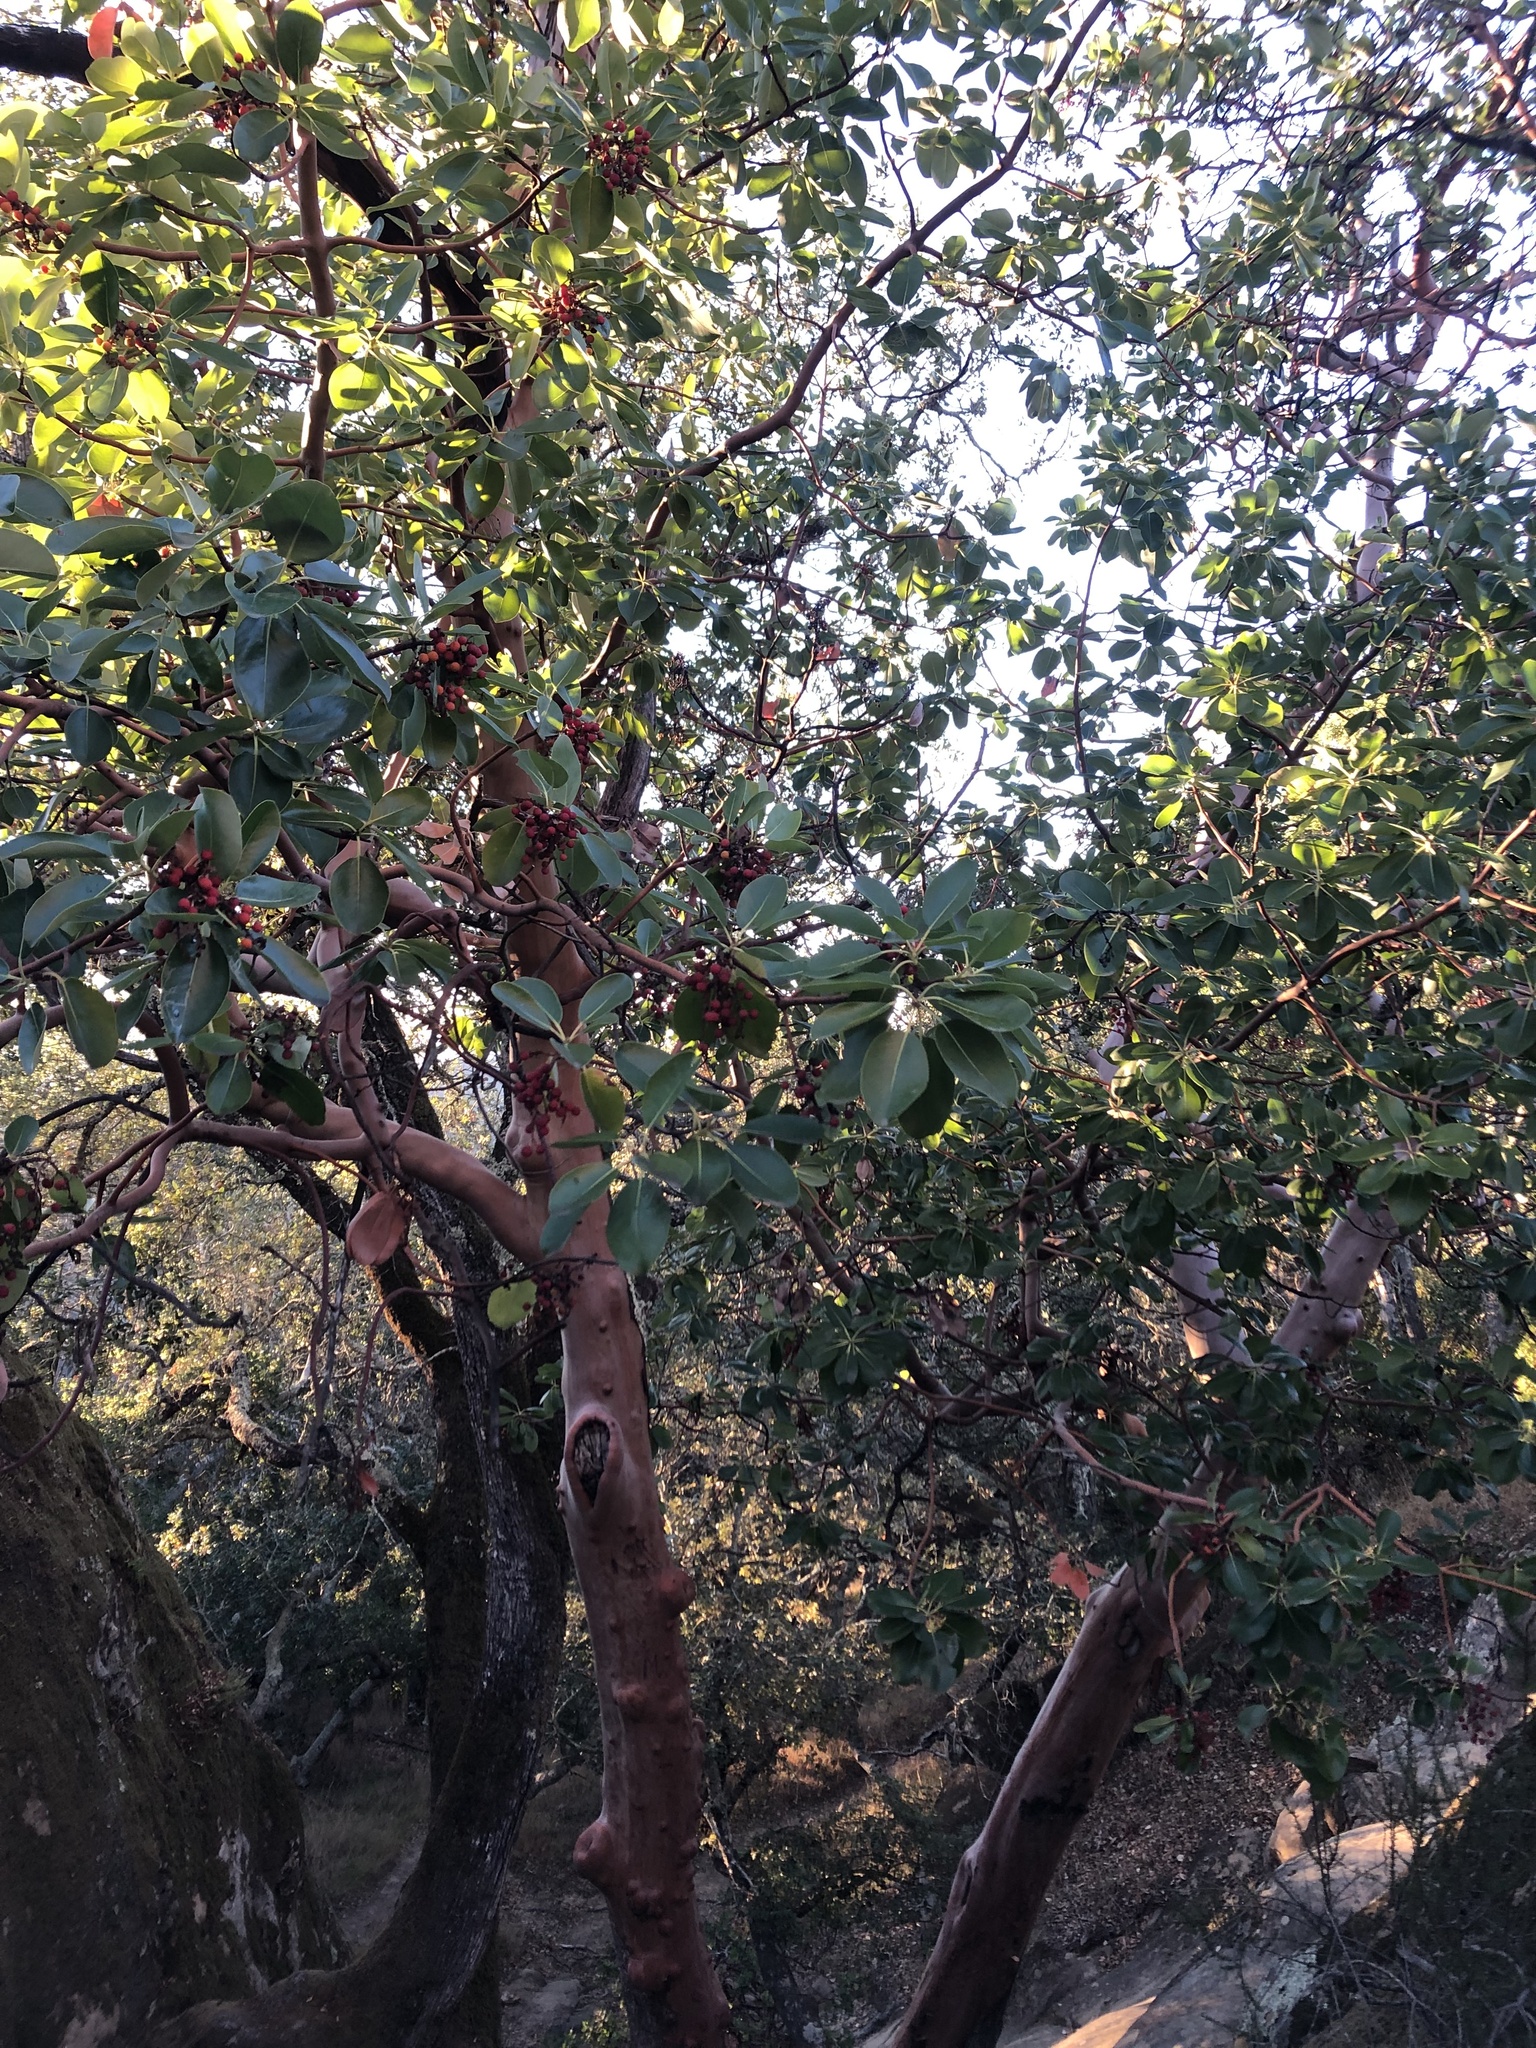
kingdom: Plantae
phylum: Tracheophyta
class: Magnoliopsida
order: Ericales
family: Ericaceae
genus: Arbutus
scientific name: Arbutus menziesii
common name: Pacific madrone
